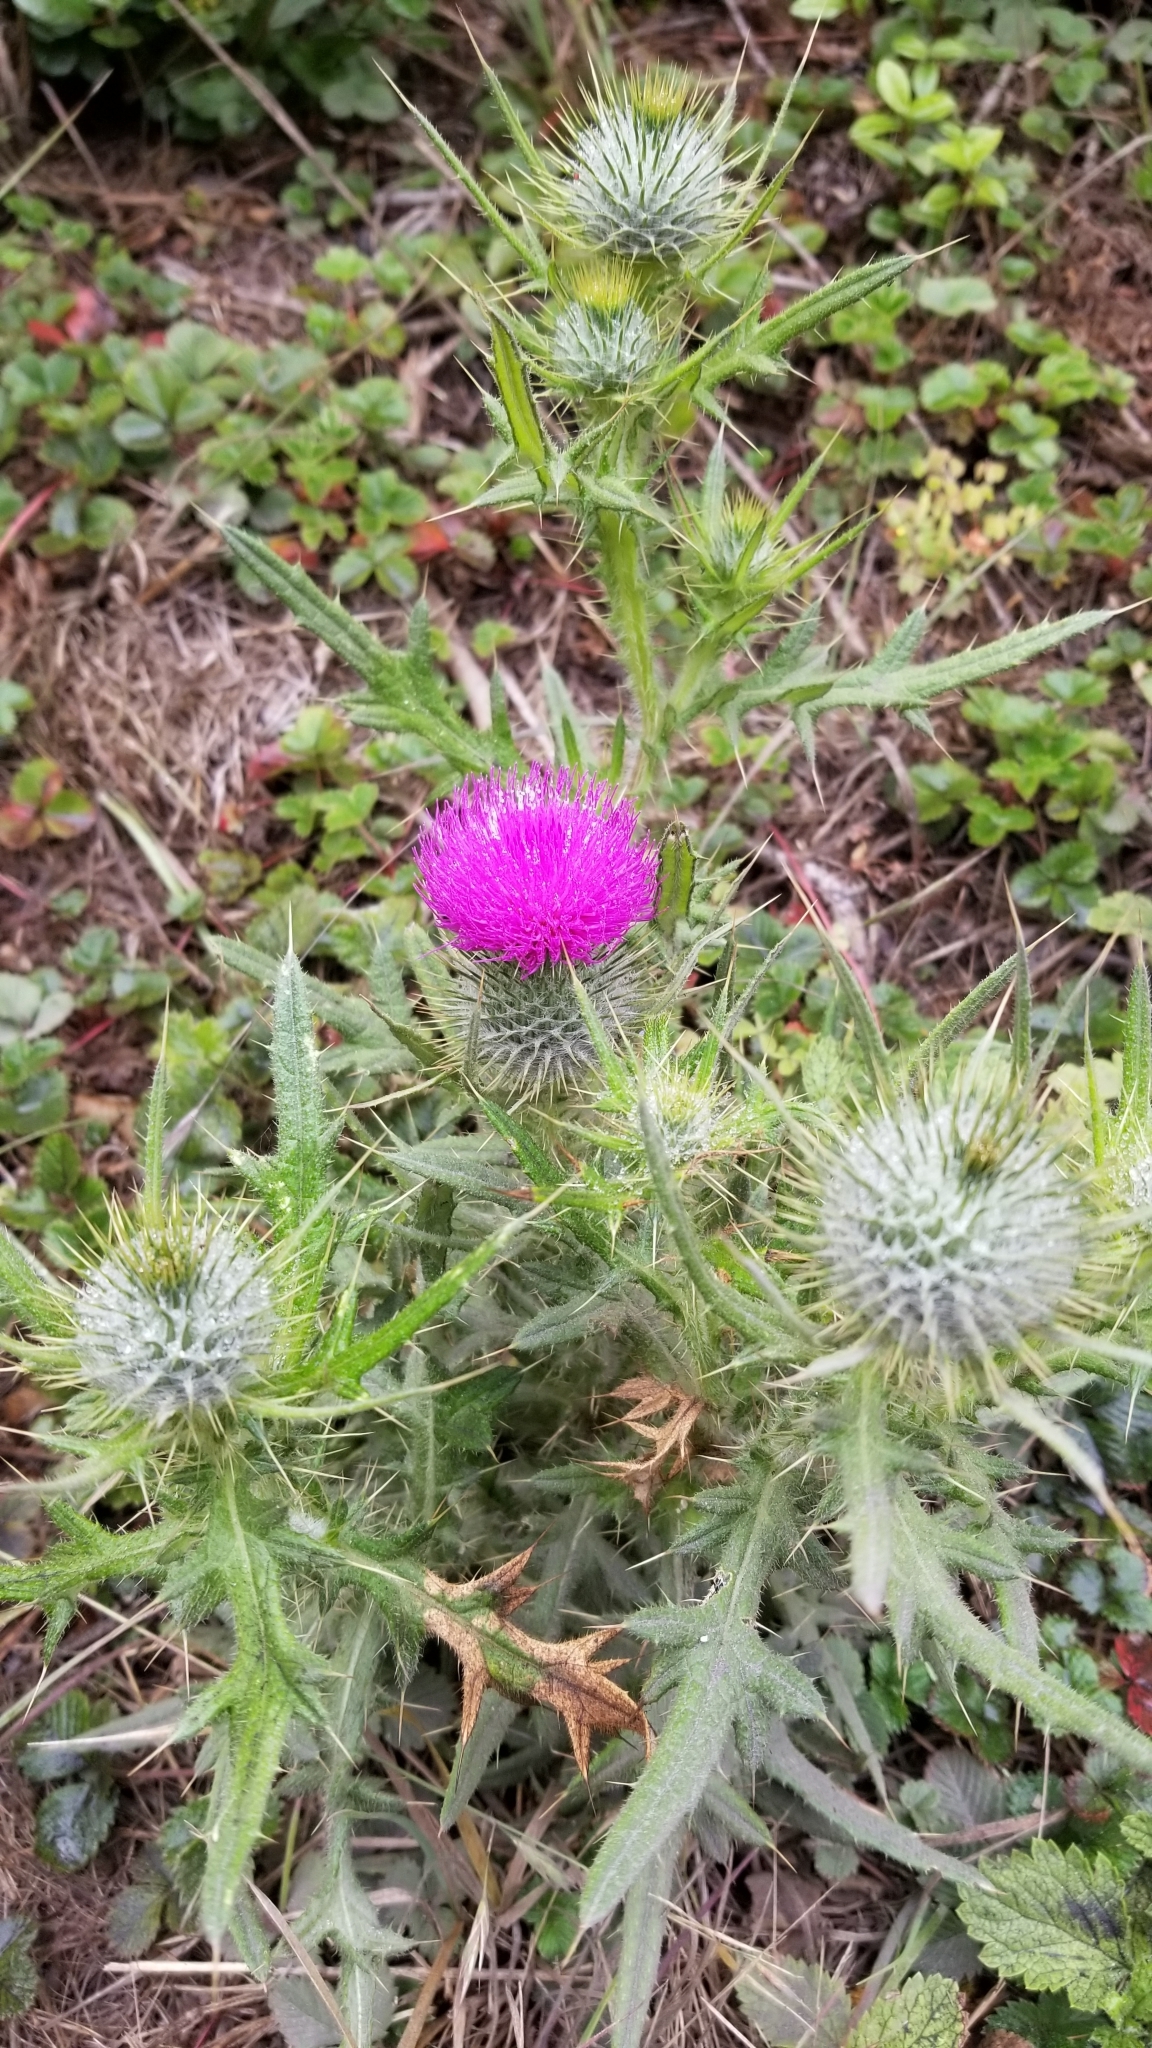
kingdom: Plantae
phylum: Tracheophyta
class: Magnoliopsida
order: Asterales
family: Asteraceae
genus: Cirsium
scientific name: Cirsium vulgare
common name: Bull thistle
